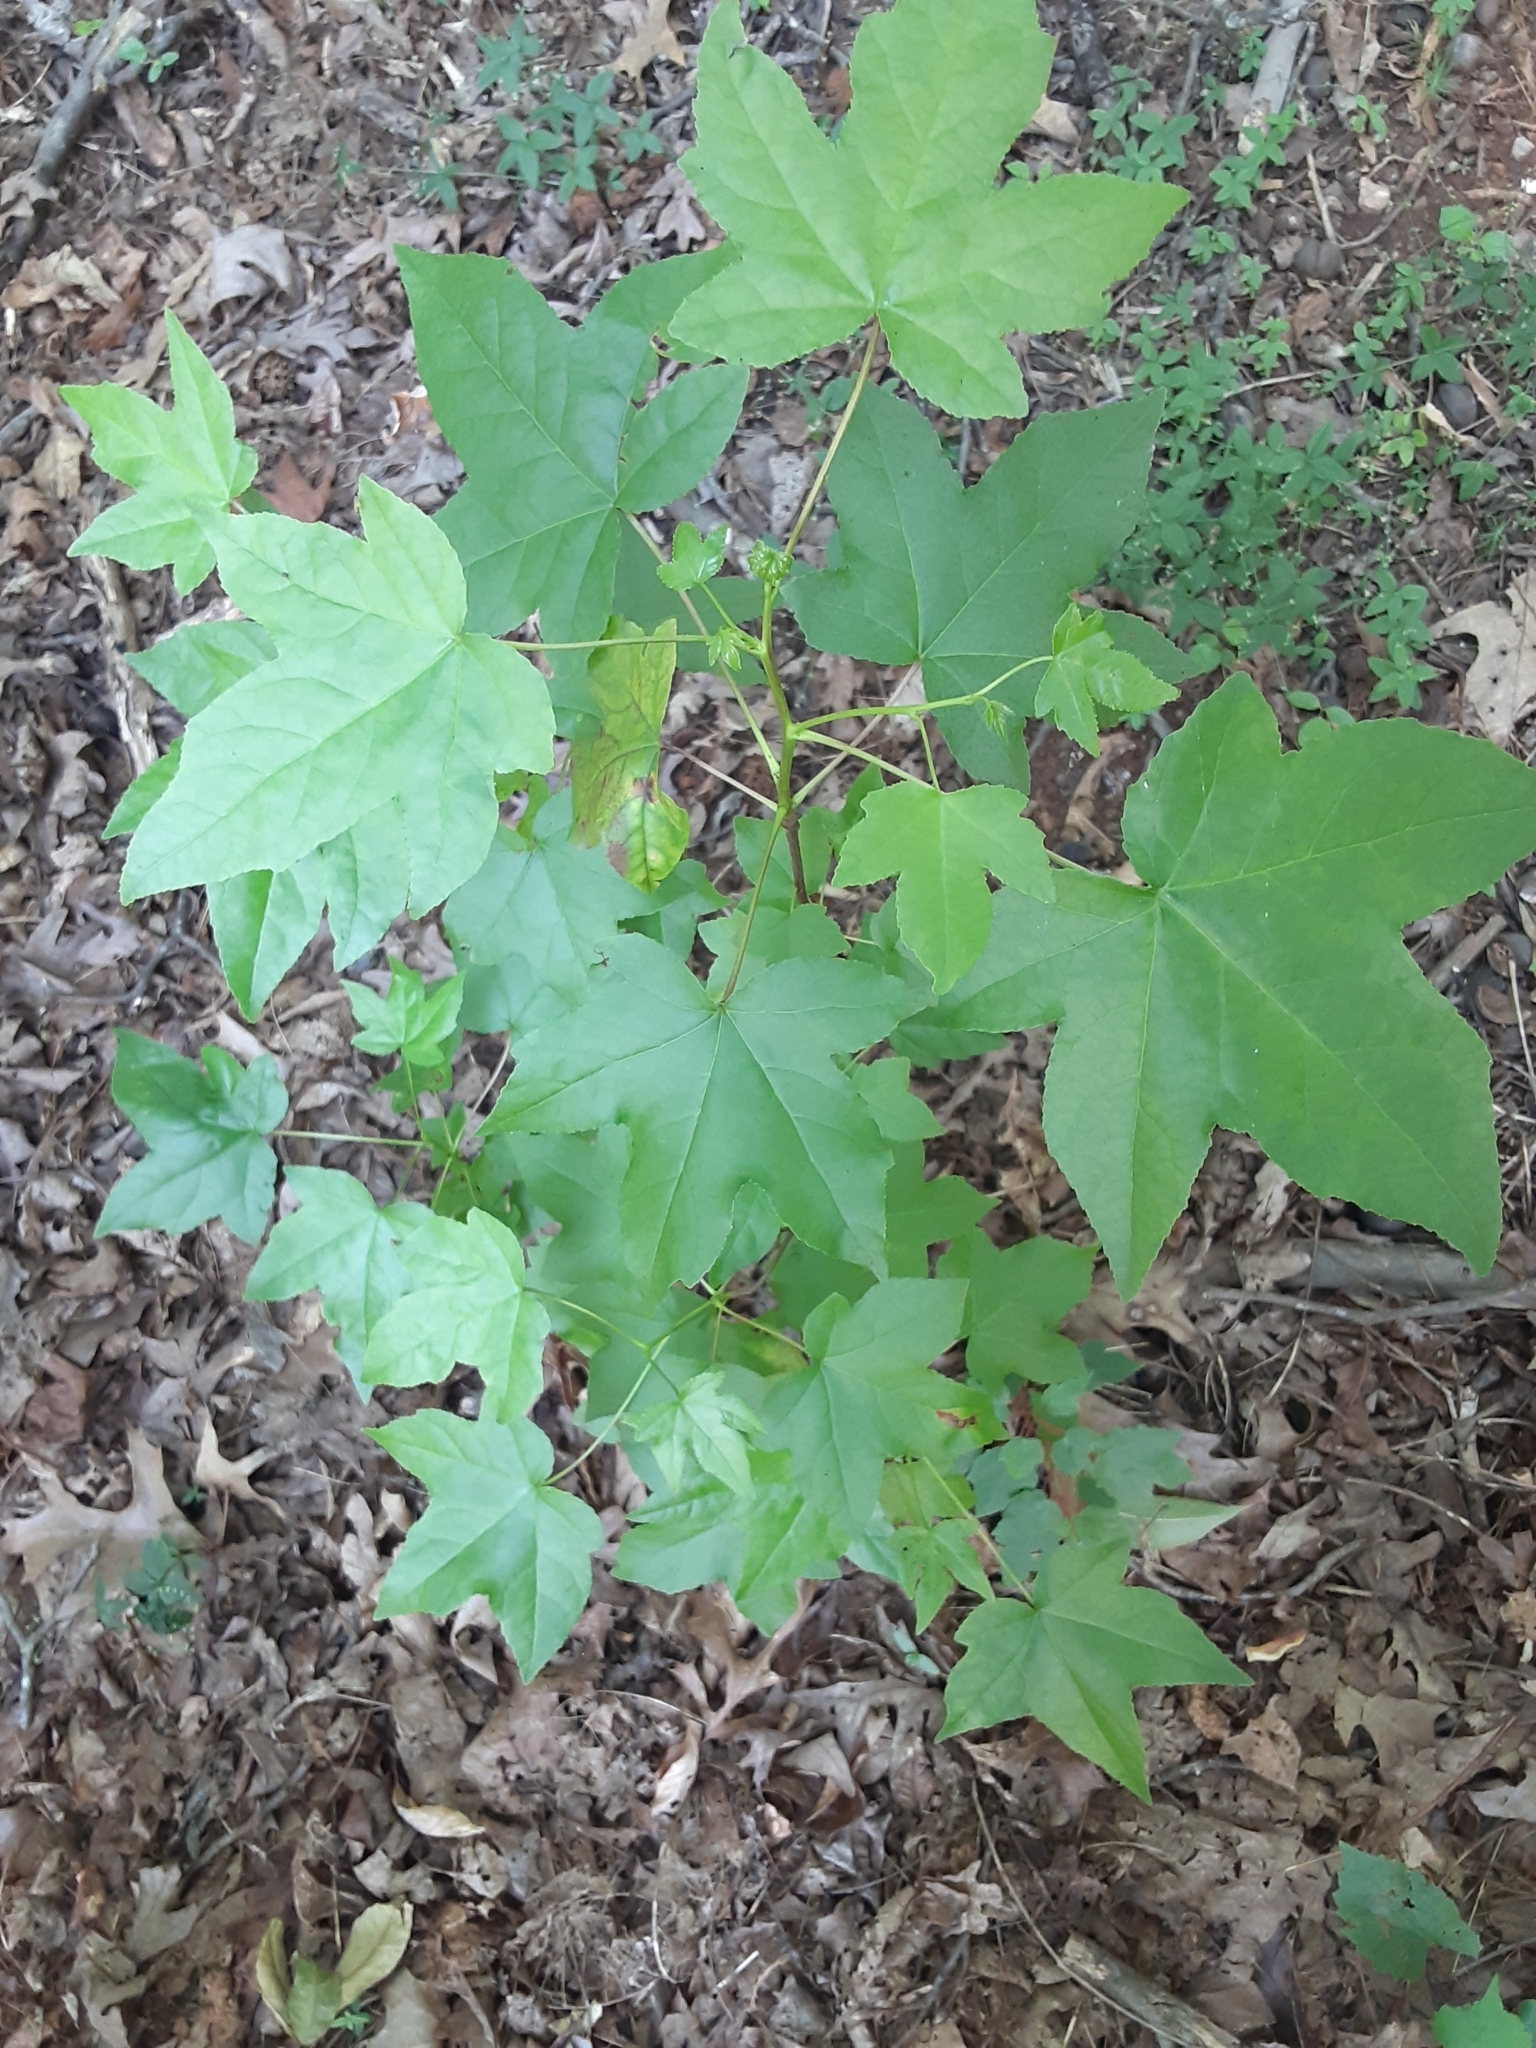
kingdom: Plantae
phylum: Tracheophyta
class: Magnoliopsida
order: Saxifragales
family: Altingiaceae
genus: Liquidambar
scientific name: Liquidambar styraciflua
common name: Sweet gum
